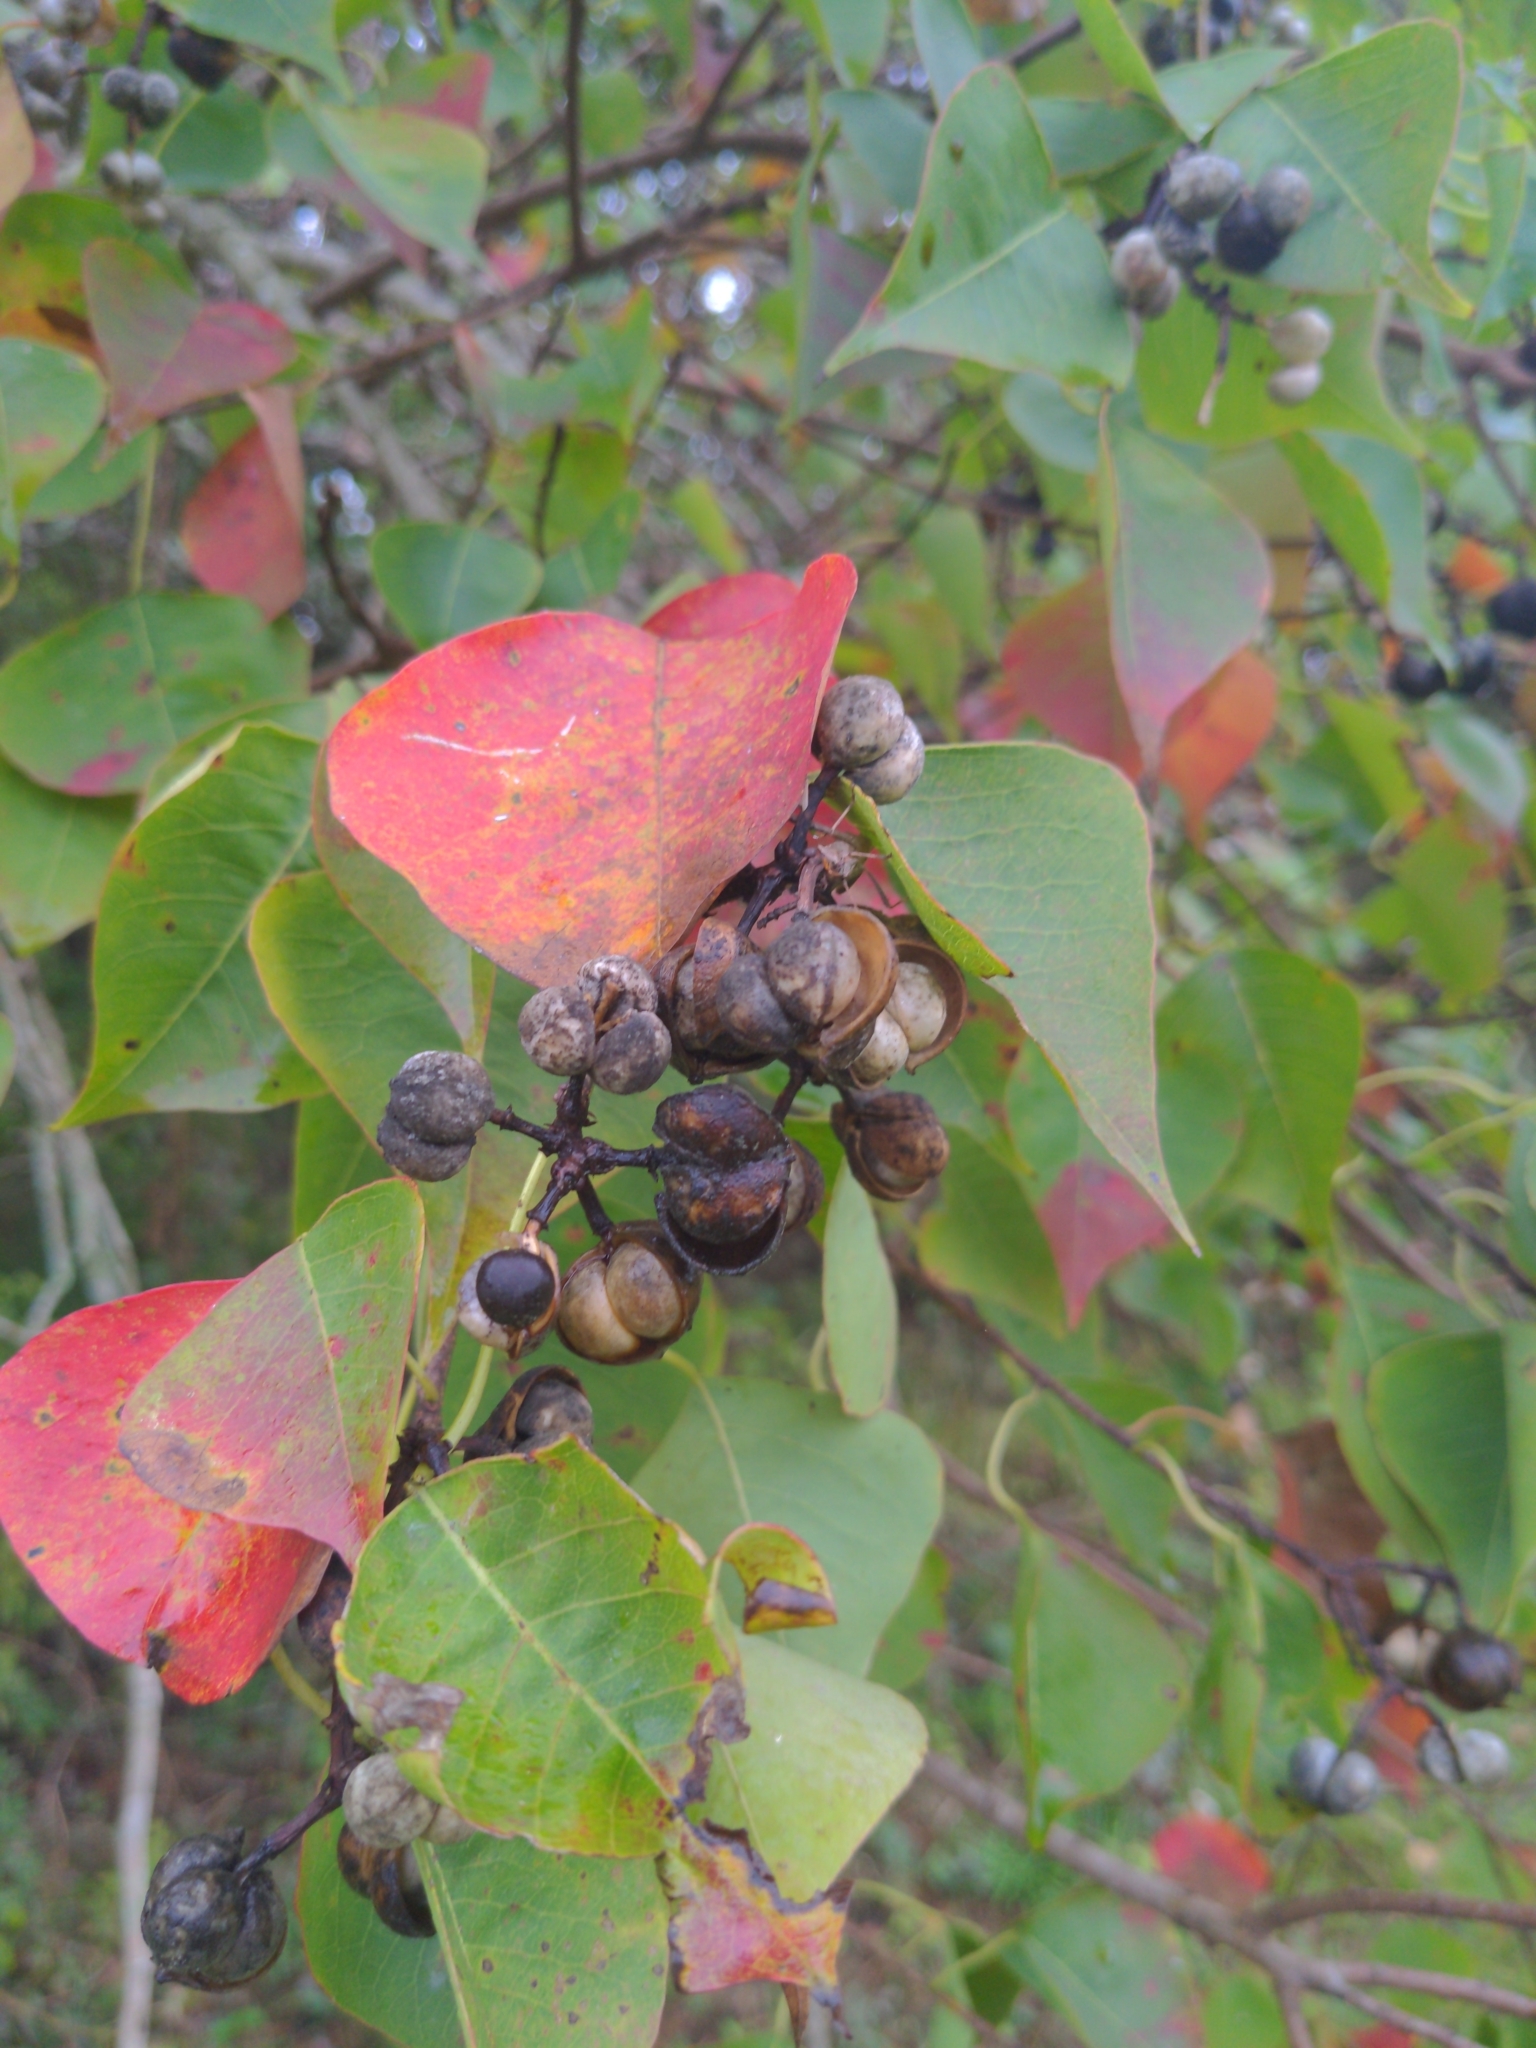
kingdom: Plantae
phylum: Tracheophyta
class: Magnoliopsida
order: Malpighiales
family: Euphorbiaceae
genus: Triadica
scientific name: Triadica sebifera
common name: Chinese tallow
